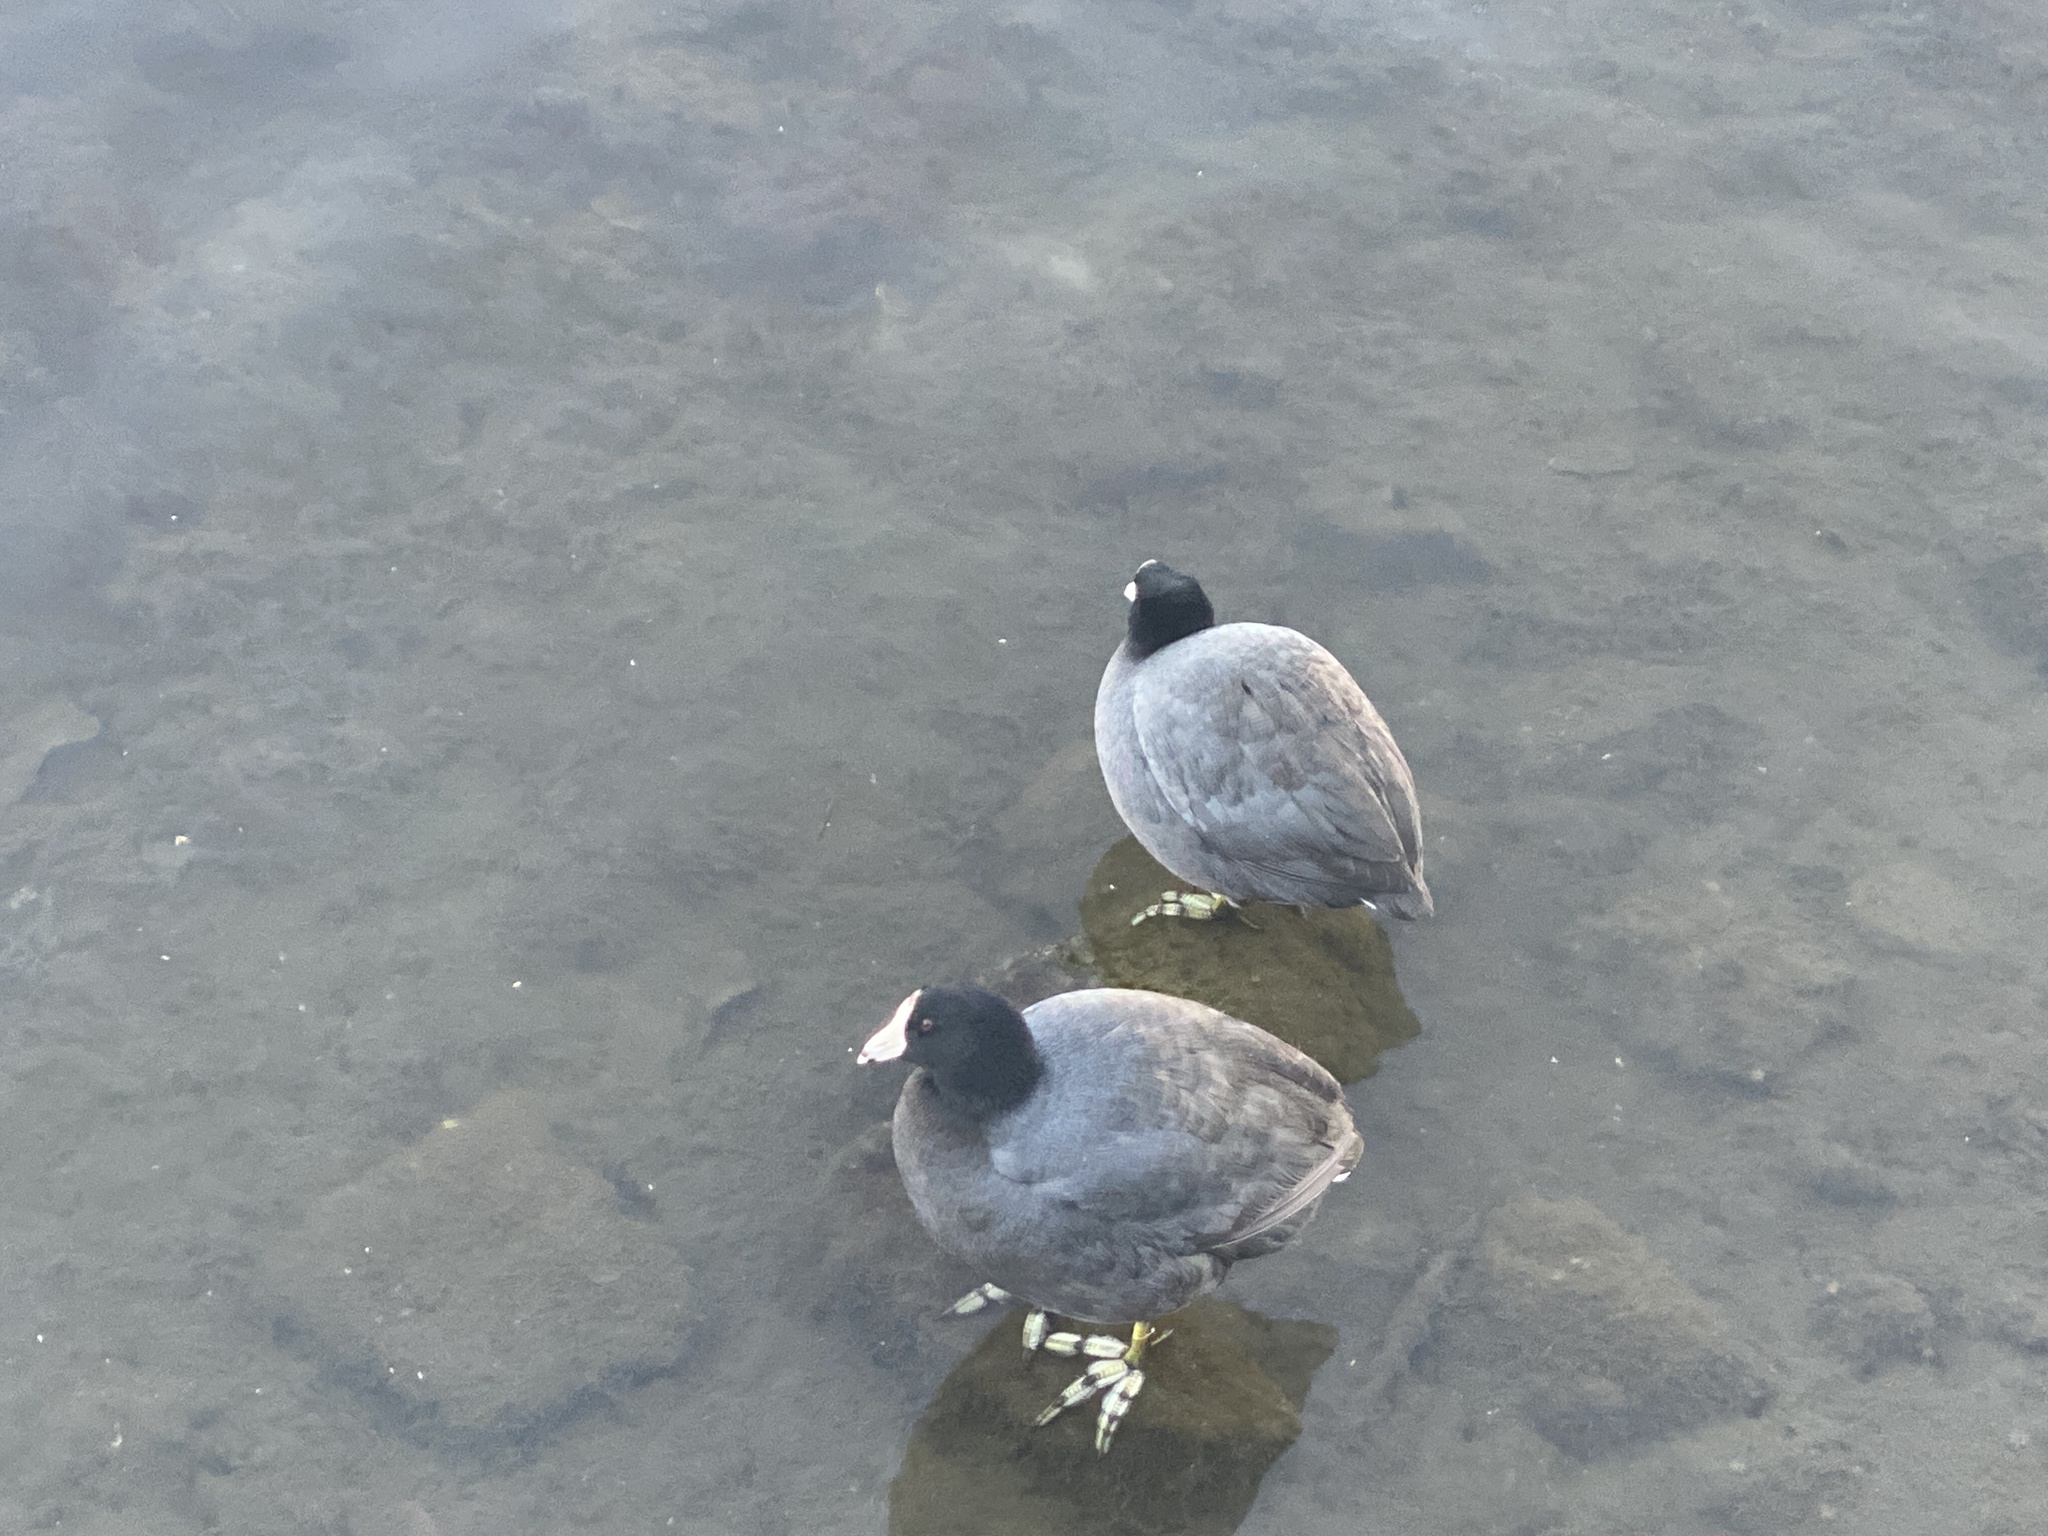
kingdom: Animalia
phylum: Chordata
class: Aves
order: Gruiformes
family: Rallidae
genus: Fulica
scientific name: Fulica americana
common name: American coot
